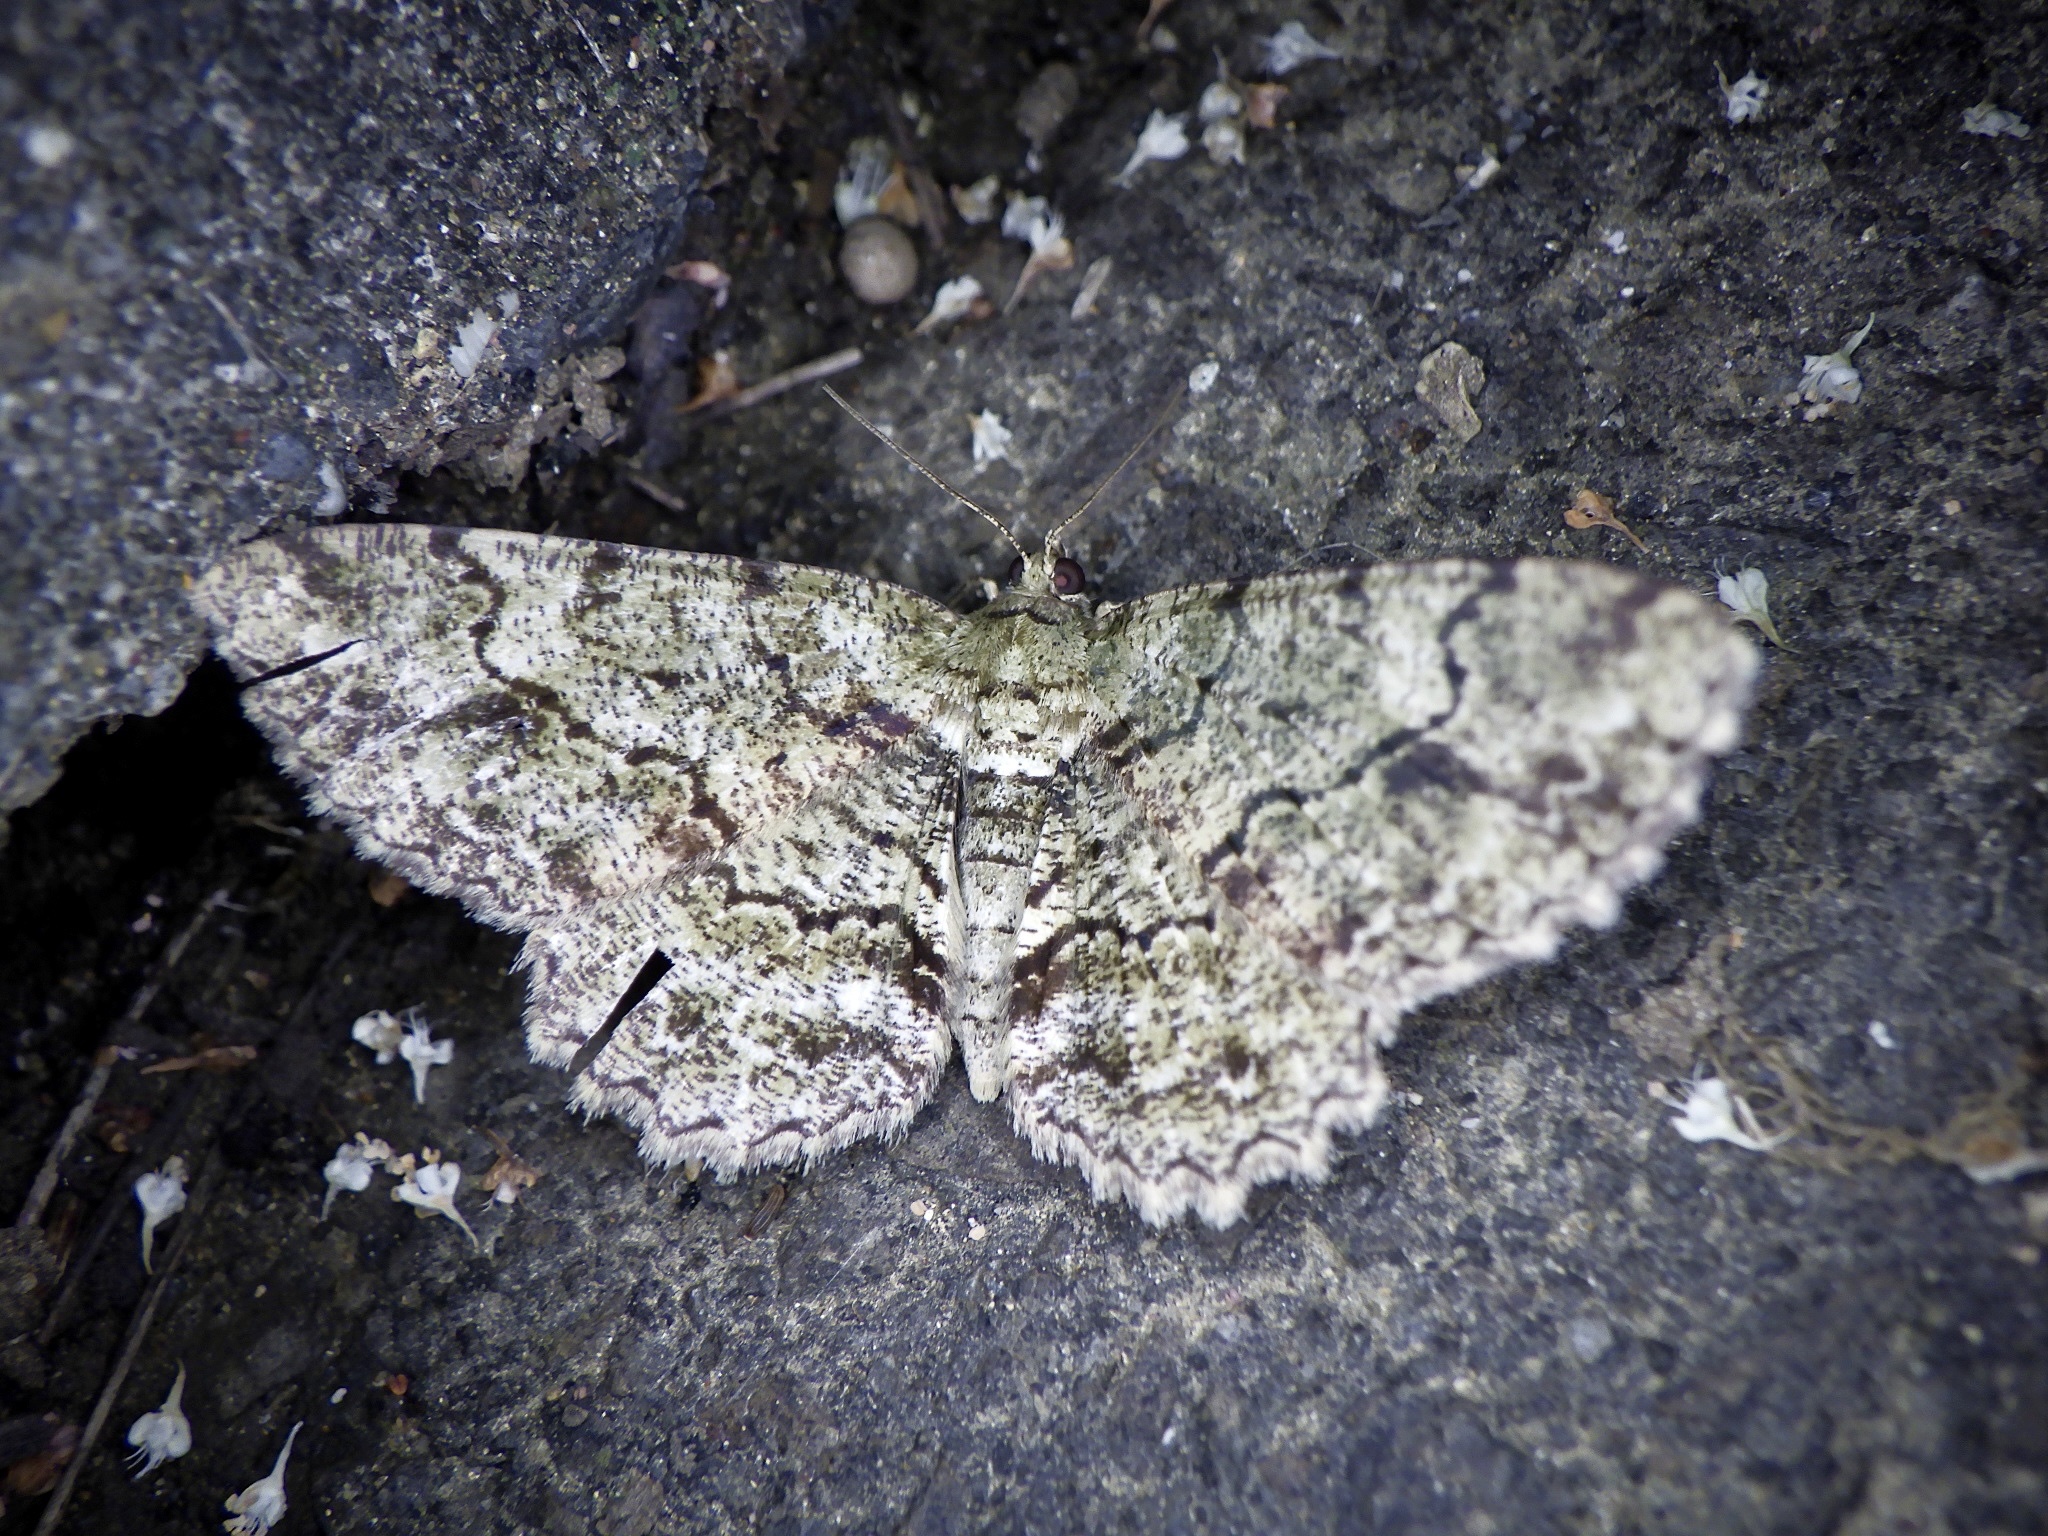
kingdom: Animalia
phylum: Arthropoda
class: Insecta
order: Lepidoptera
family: Geometridae
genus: Paradarisa
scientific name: Paradarisa chloauges
